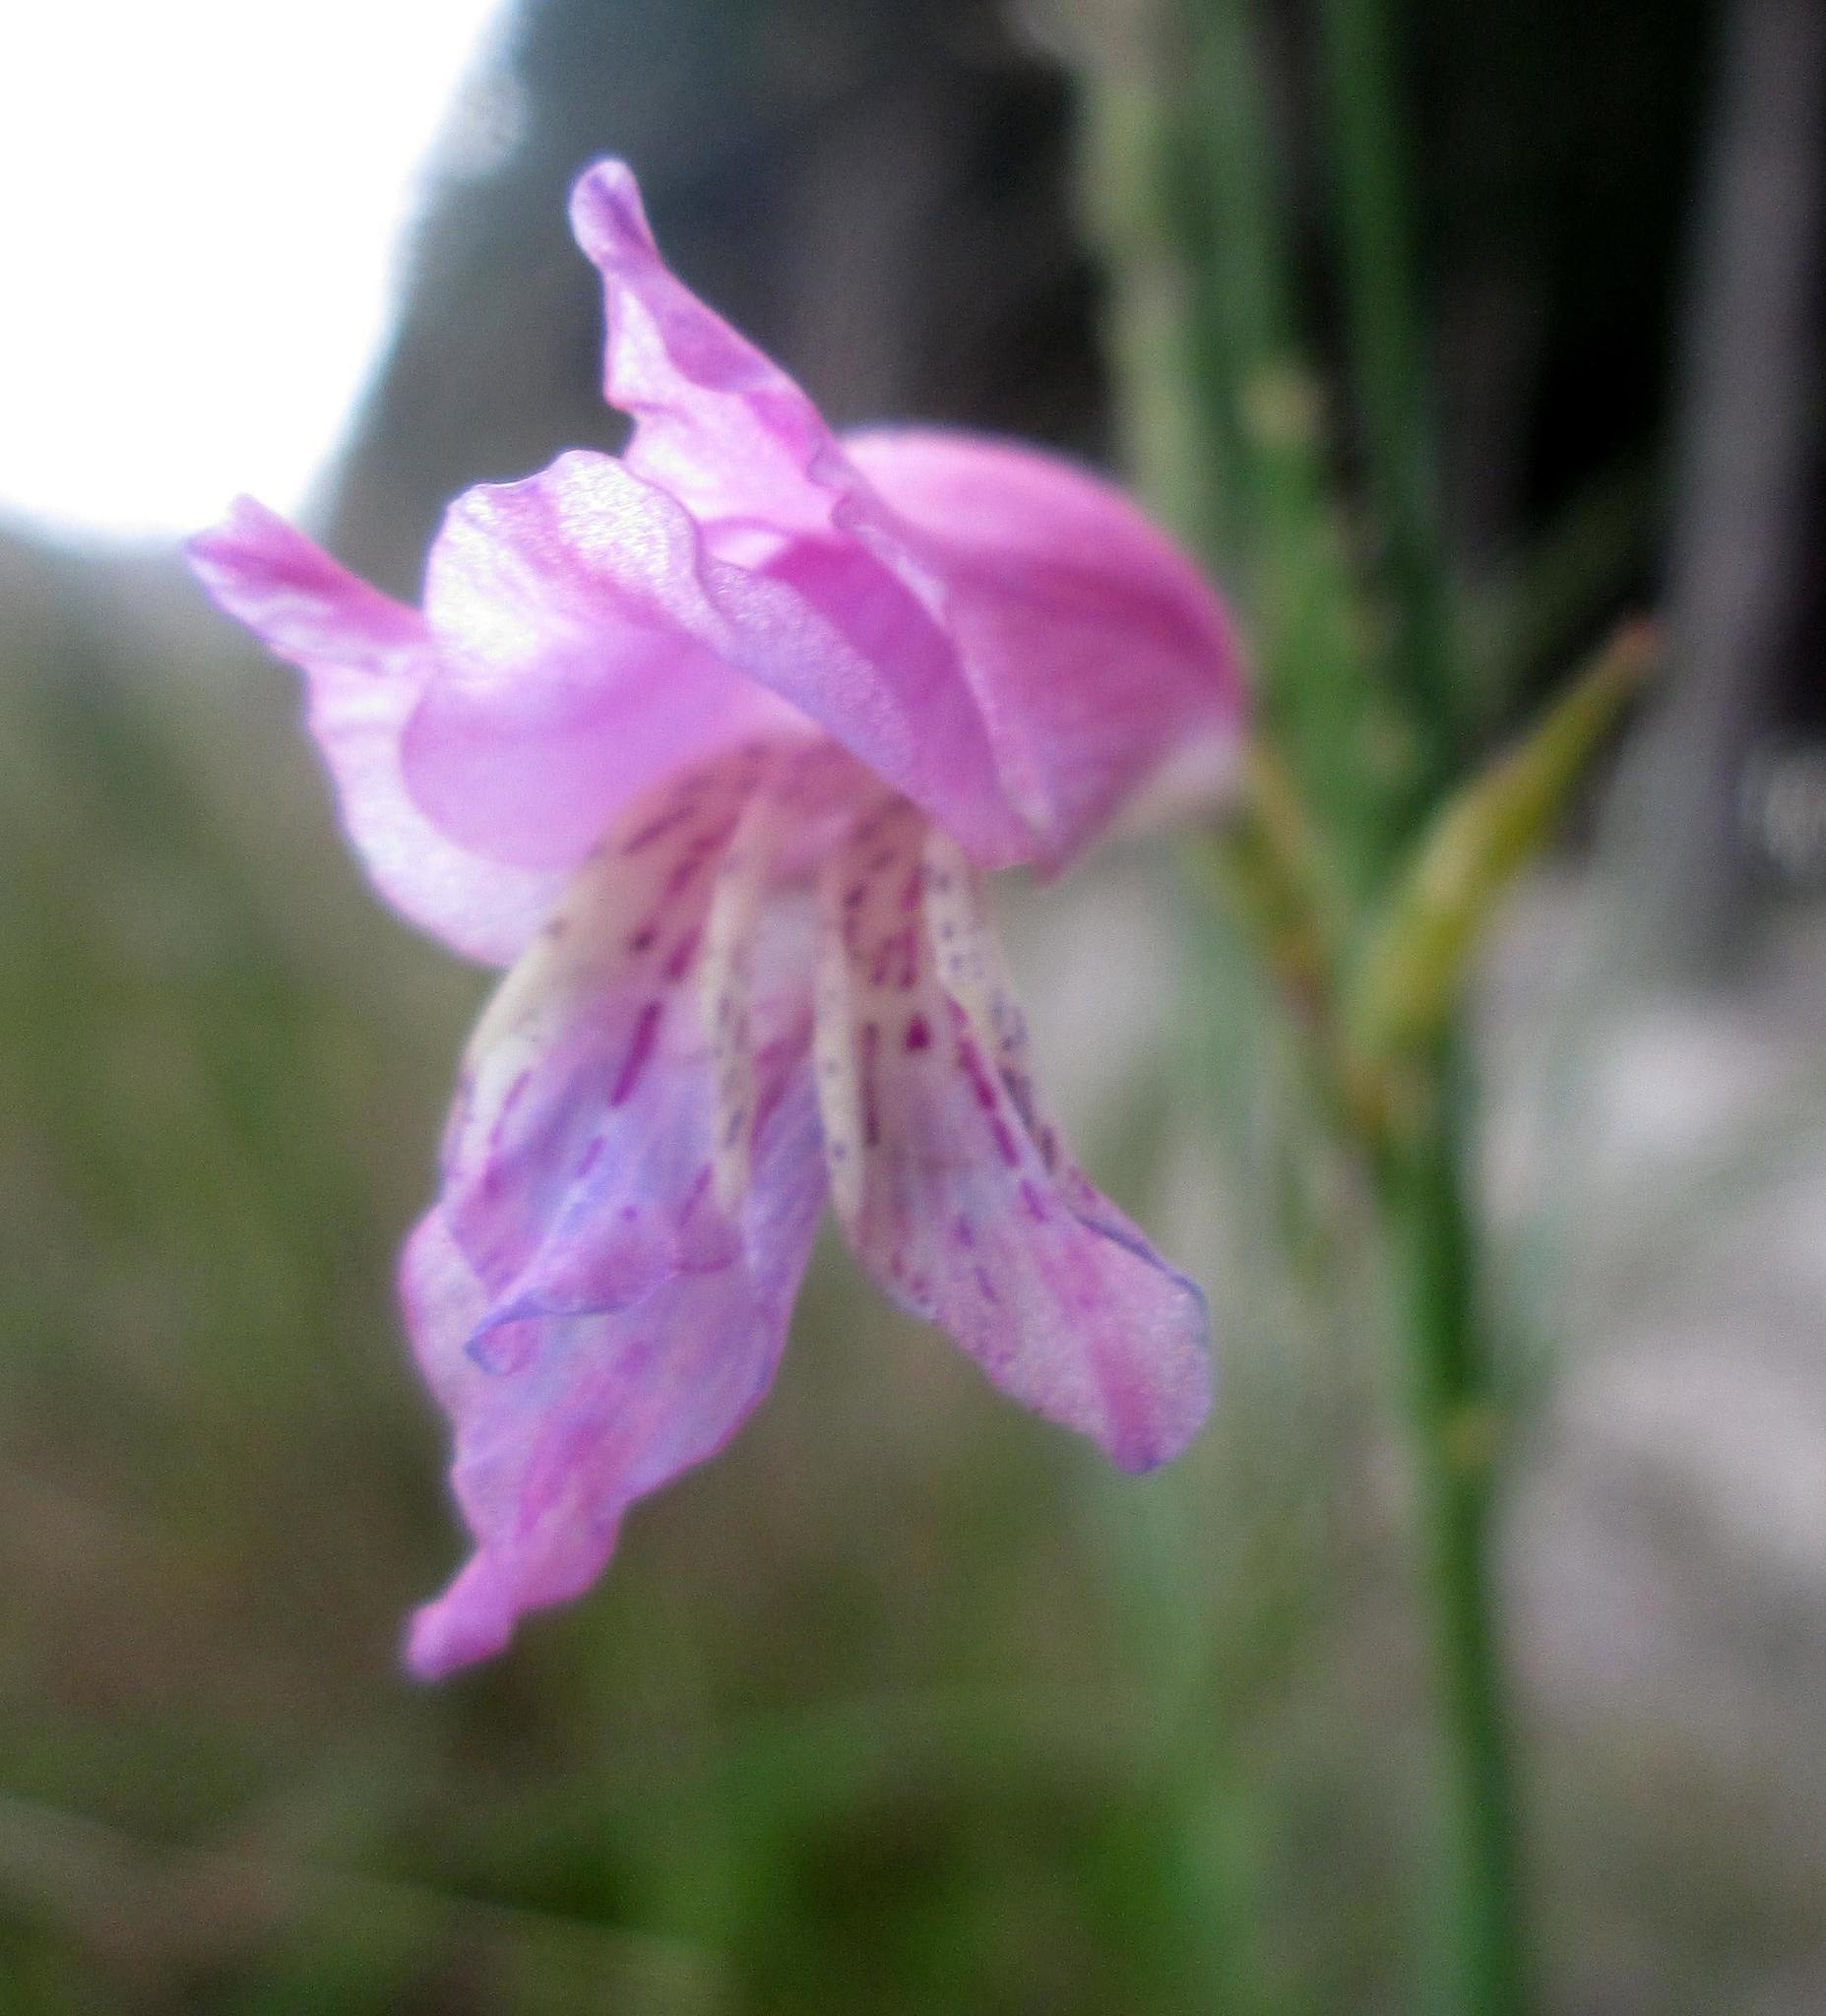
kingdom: Plantae
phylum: Tracheophyta
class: Liliopsida
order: Asparagales
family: Iridaceae
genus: Gladiolus
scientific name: Gladiolus gracilis
